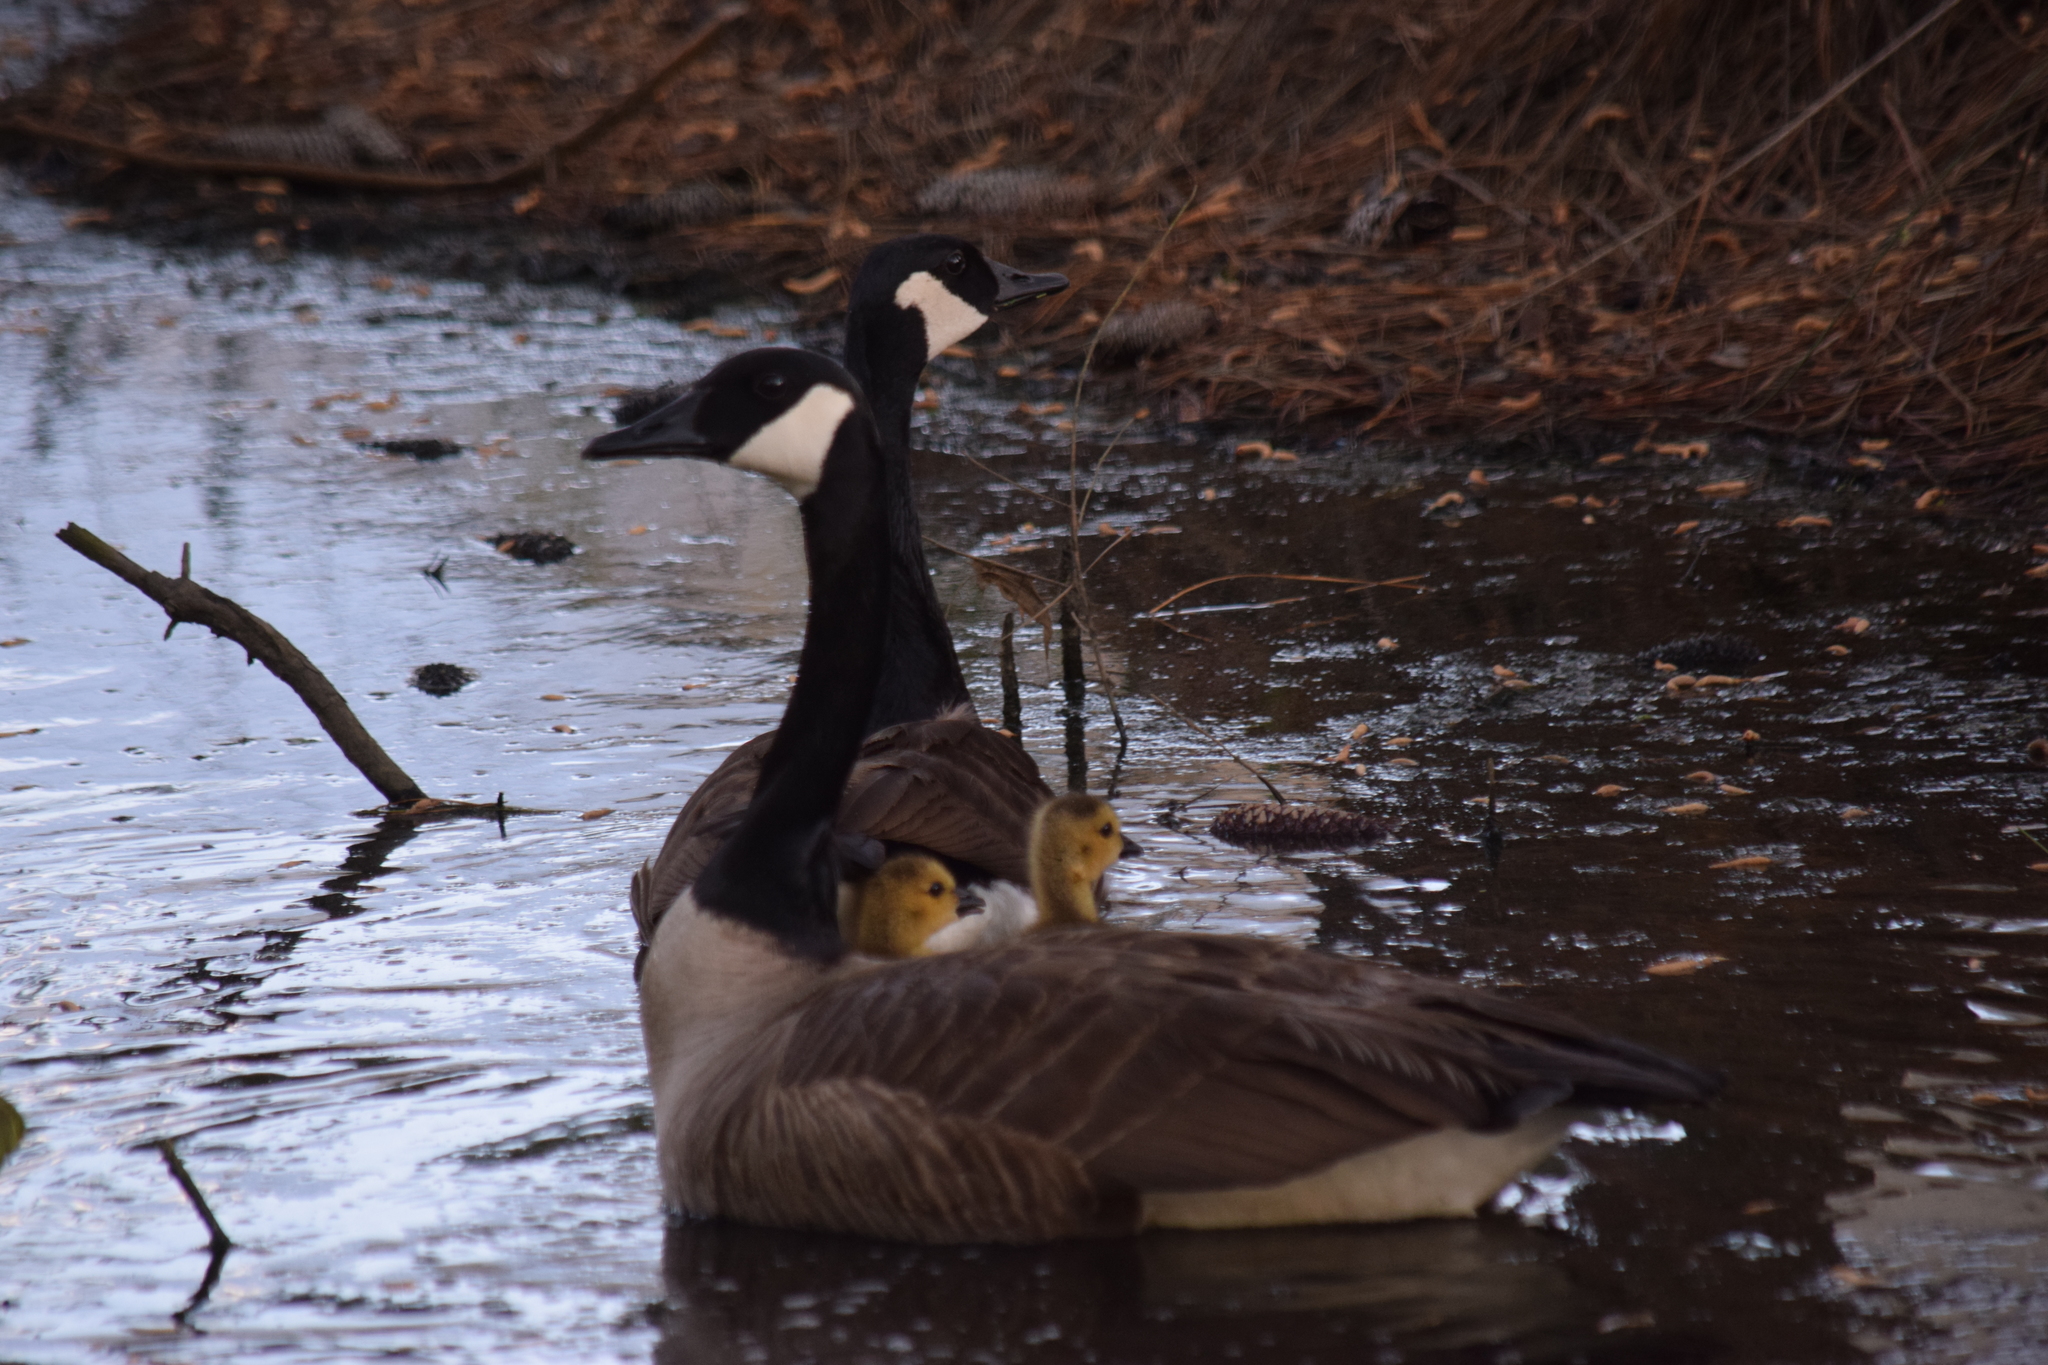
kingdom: Animalia
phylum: Chordata
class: Aves
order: Anseriformes
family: Anatidae
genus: Branta
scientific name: Branta canadensis
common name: Canada goose
